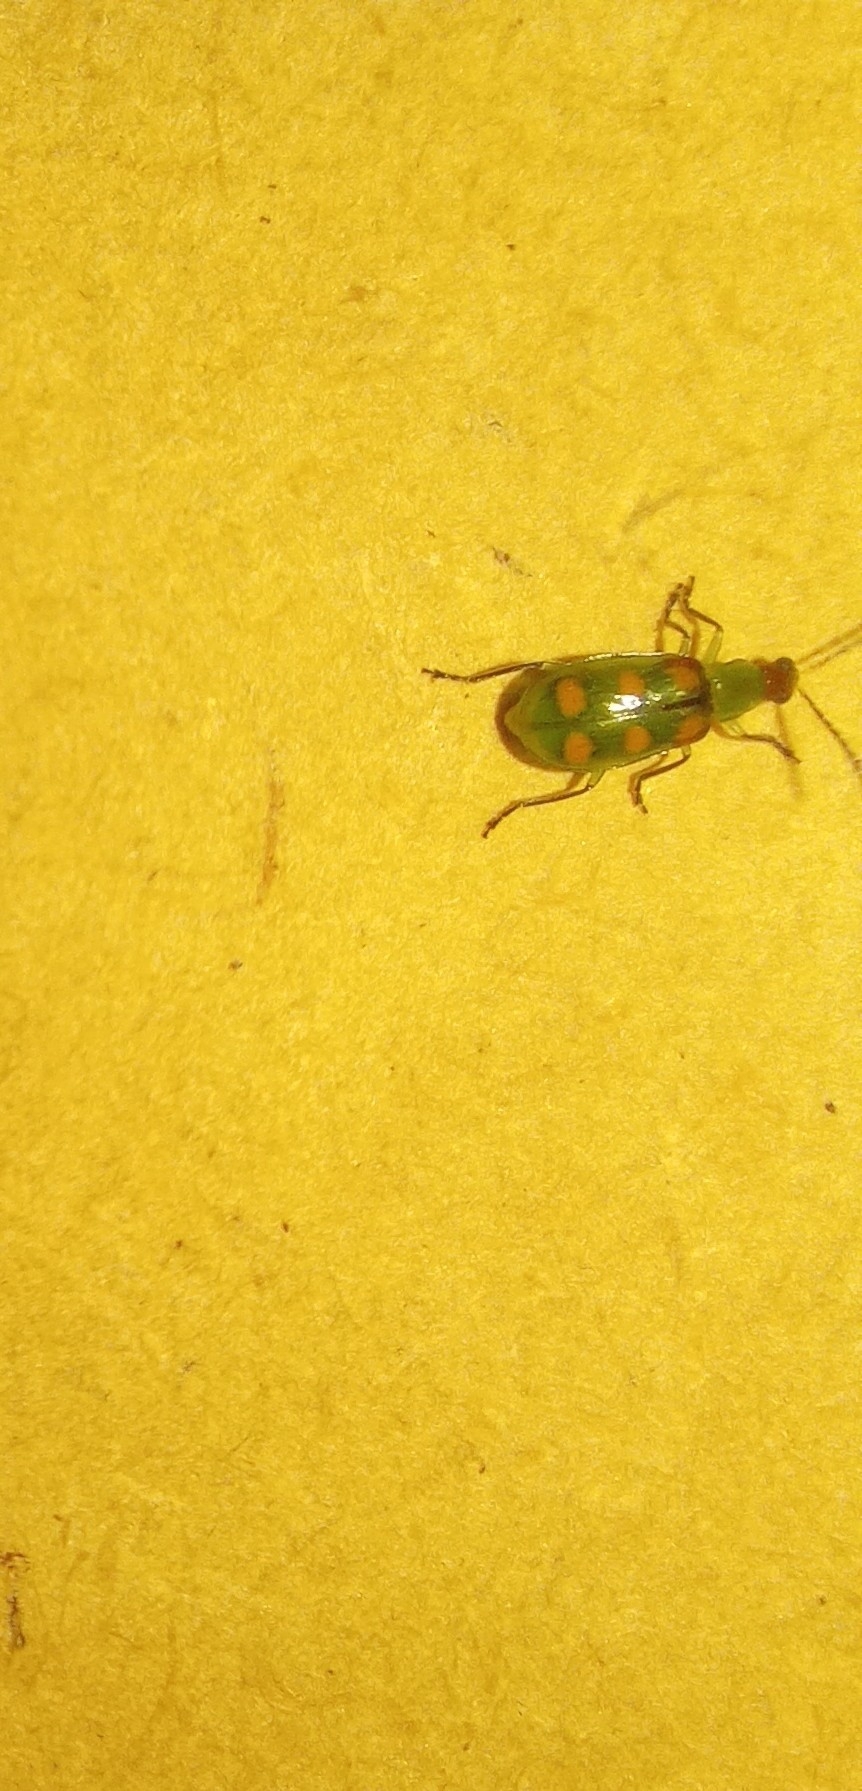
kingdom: Animalia
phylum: Arthropoda
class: Insecta
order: Coleoptera
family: Chrysomelidae
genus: Diabrotica
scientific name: Diabrotica speciosa
